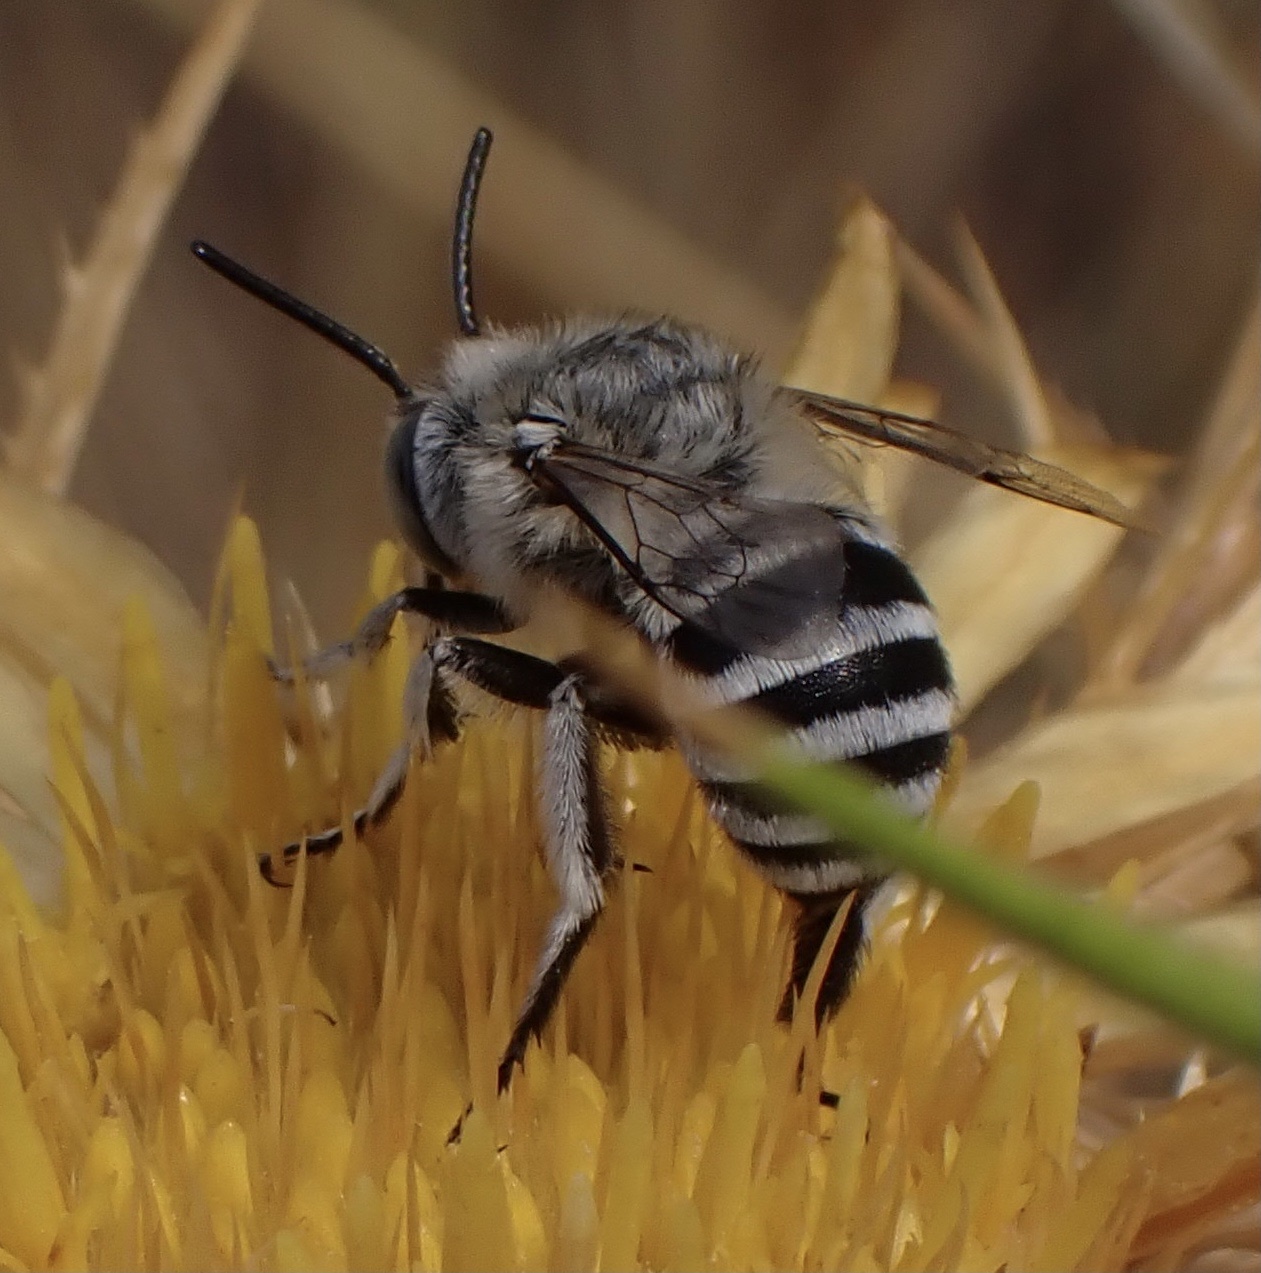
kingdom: Animalia
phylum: Arthropoda
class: Insecta
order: Hymenoptera
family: Apidae
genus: Amegilla
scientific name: Amegilla albigena
